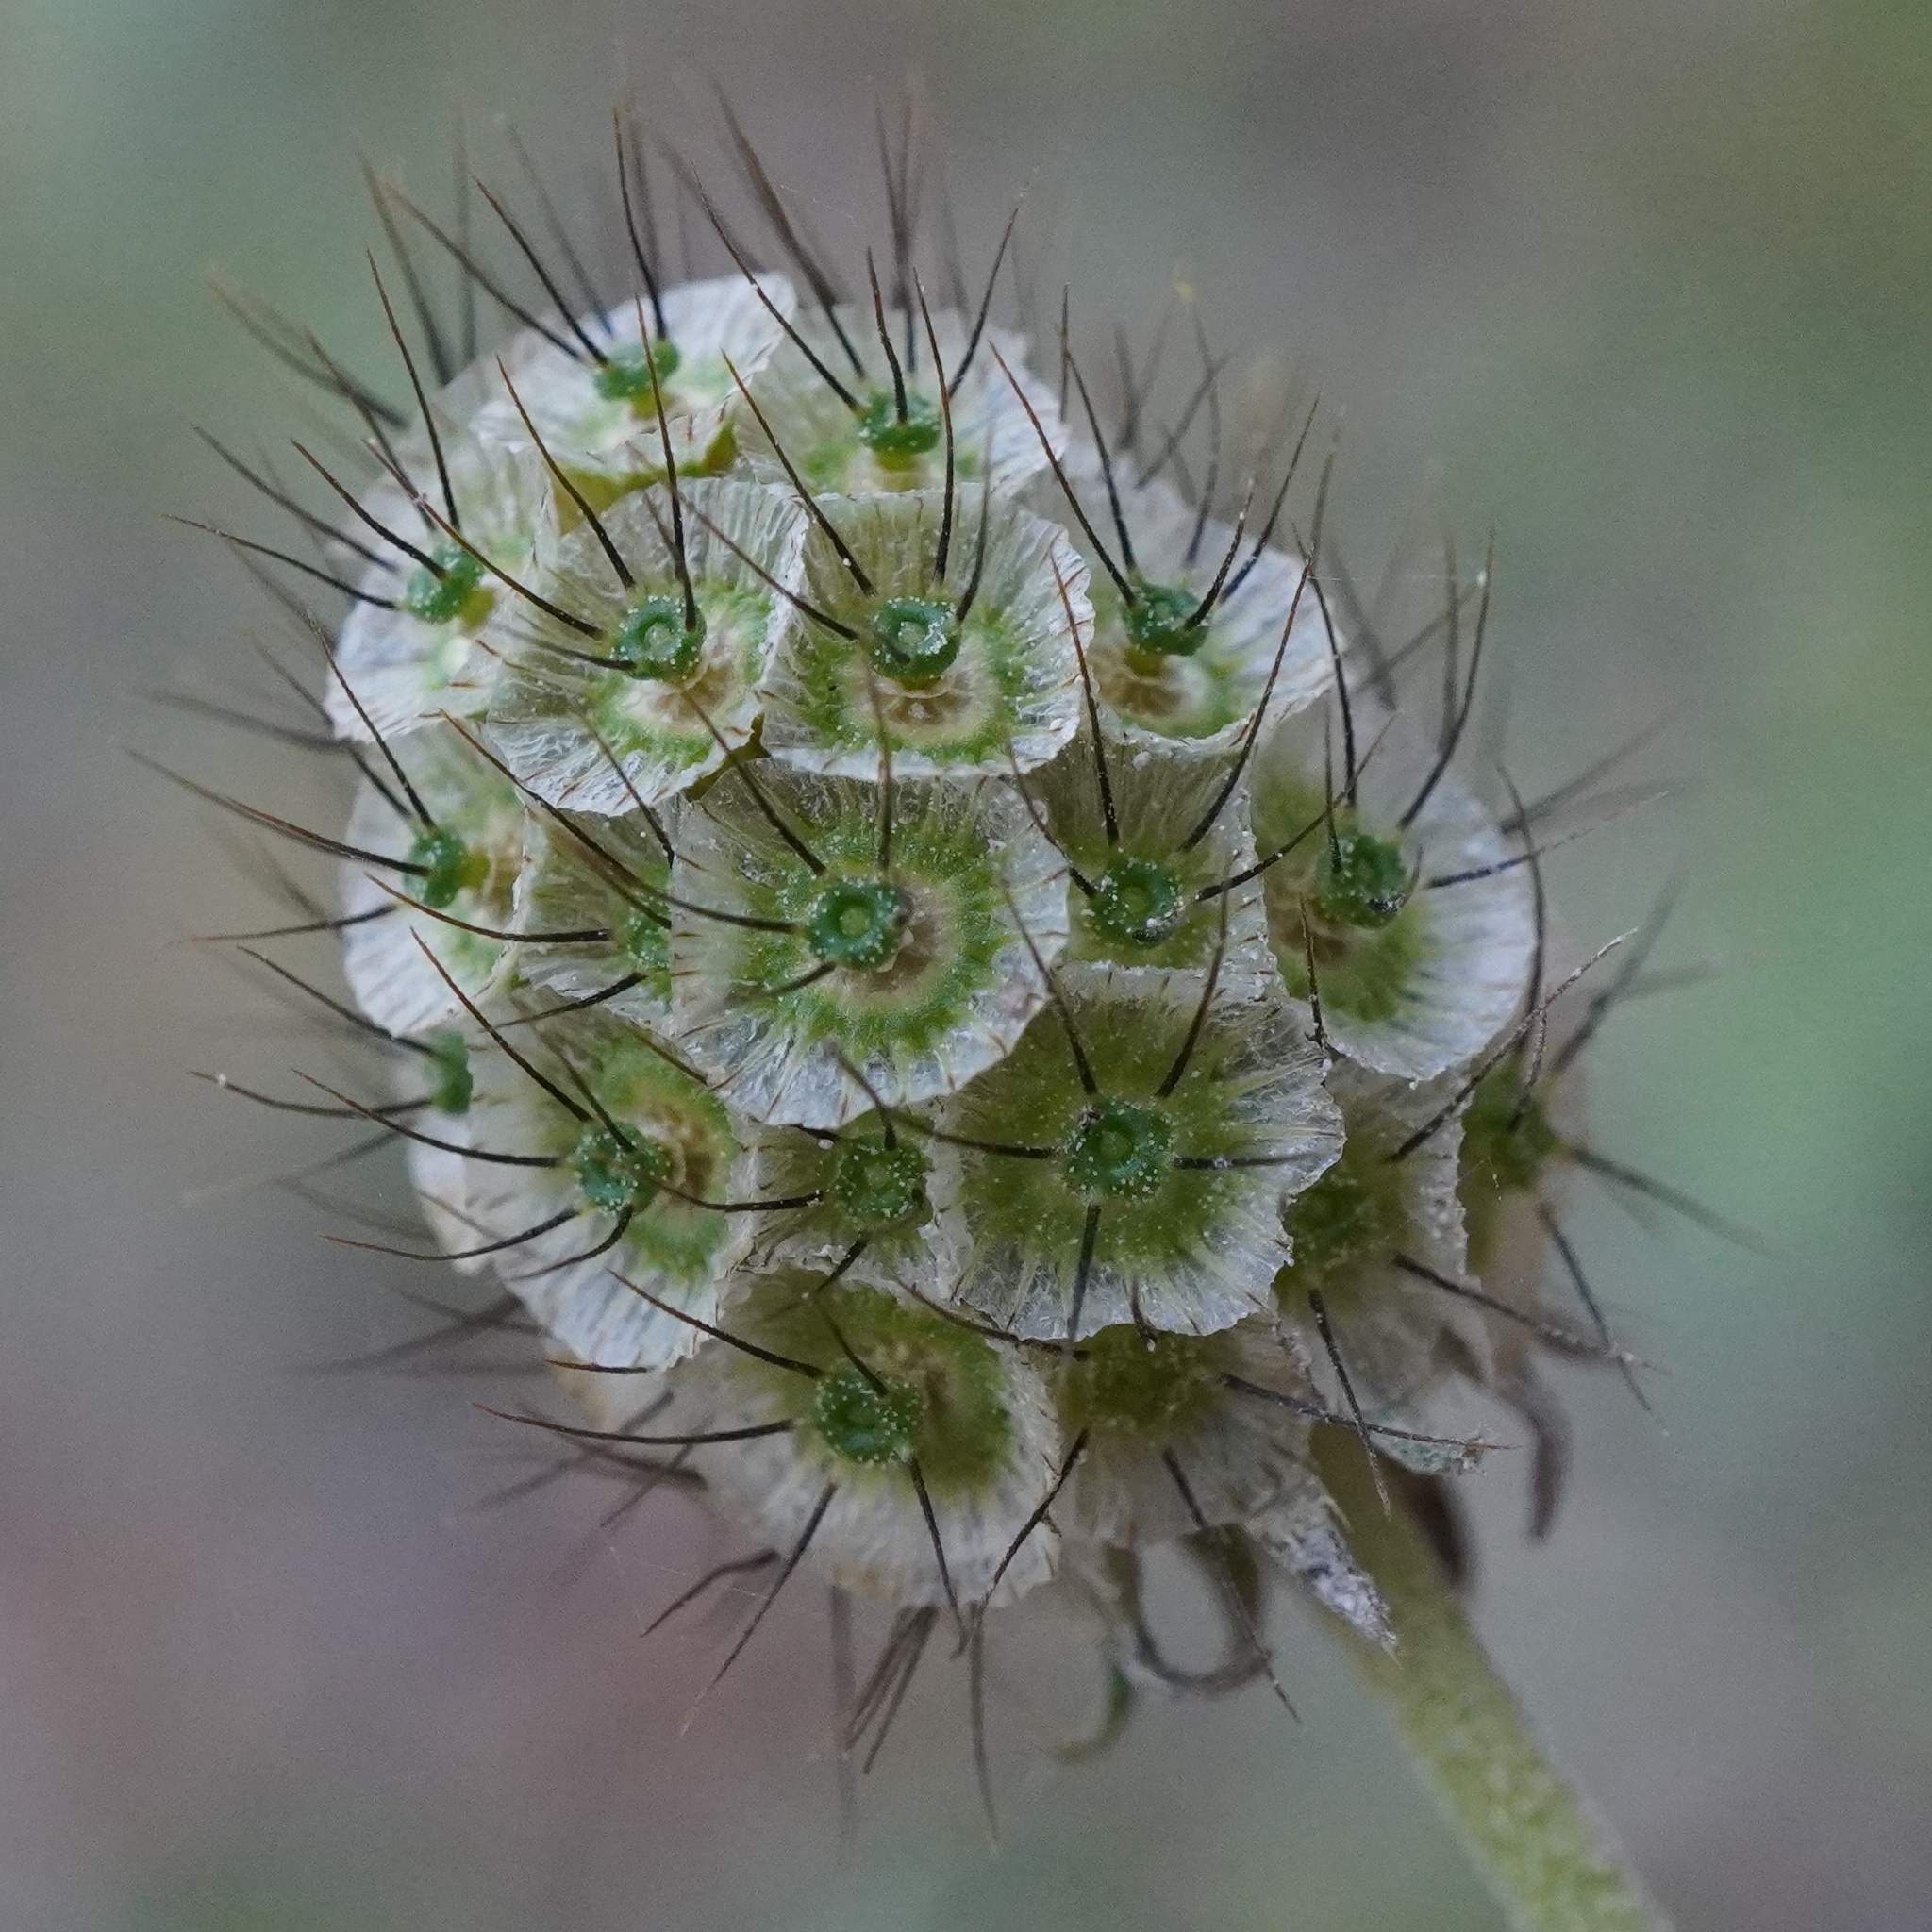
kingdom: Plantae
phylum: Tracheophyta
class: Magnoliopsida
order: Dipsacales
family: Caprifoliaceae
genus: Scabiosa
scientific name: Scabiosa ochroleuca
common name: Cream pincushions
